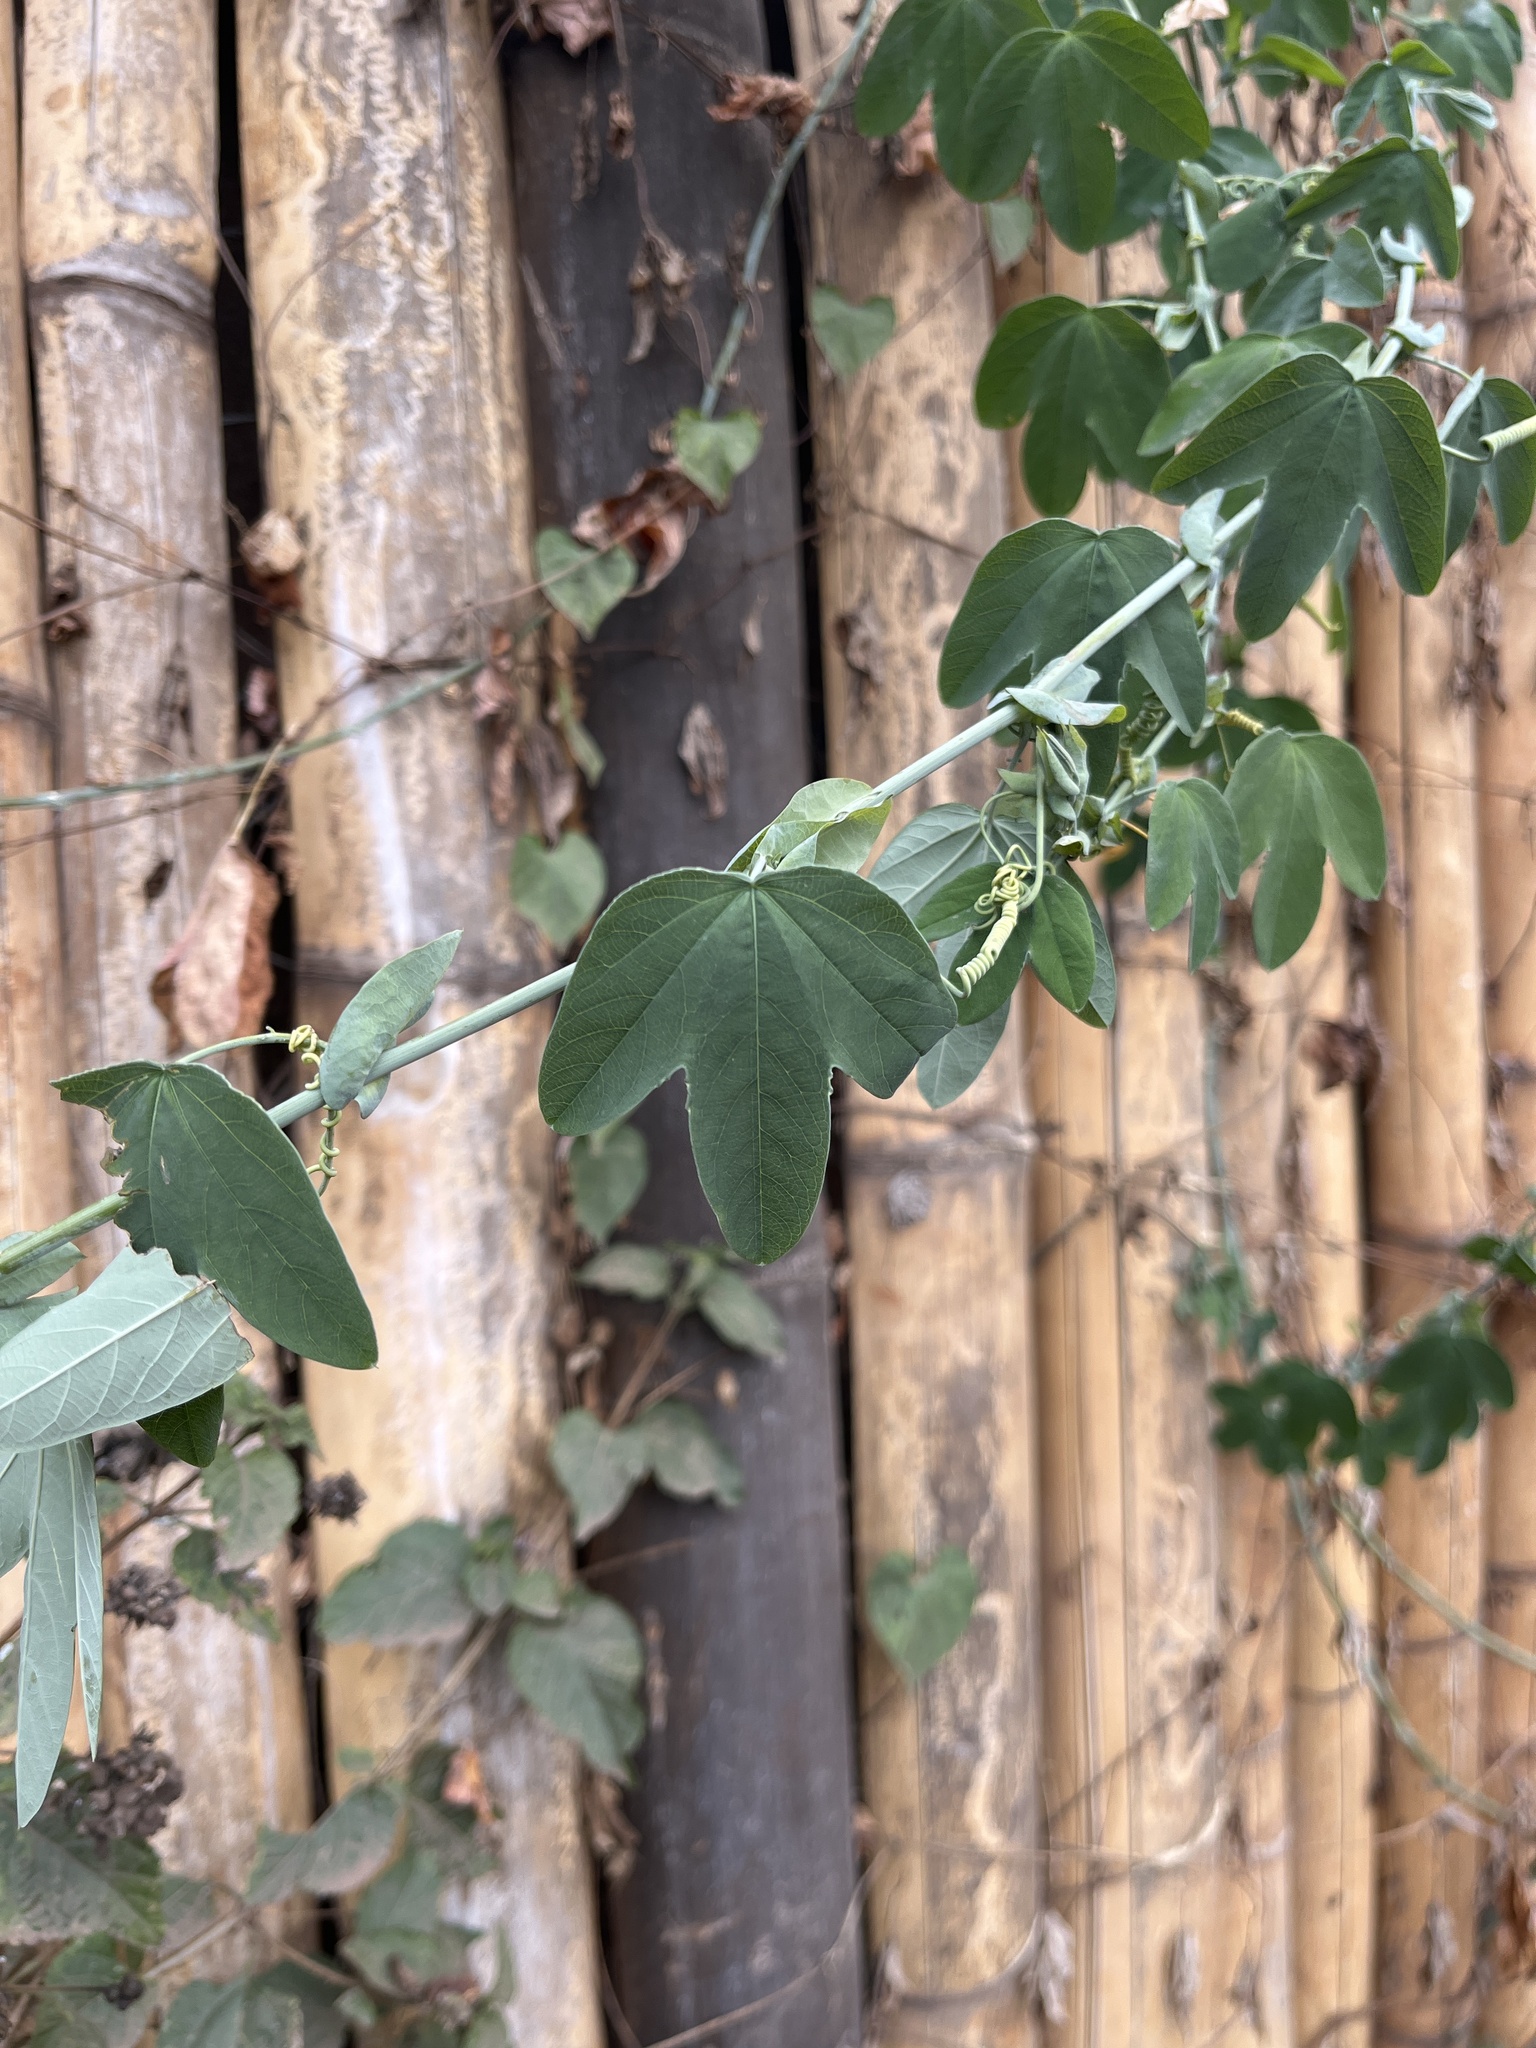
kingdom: Plantae
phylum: Tracheophyta
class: Magnoliopsida
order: Malpighiales
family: Passifloraceae
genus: Passiflora
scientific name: Passiflora subpeltata
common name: White passionflower
